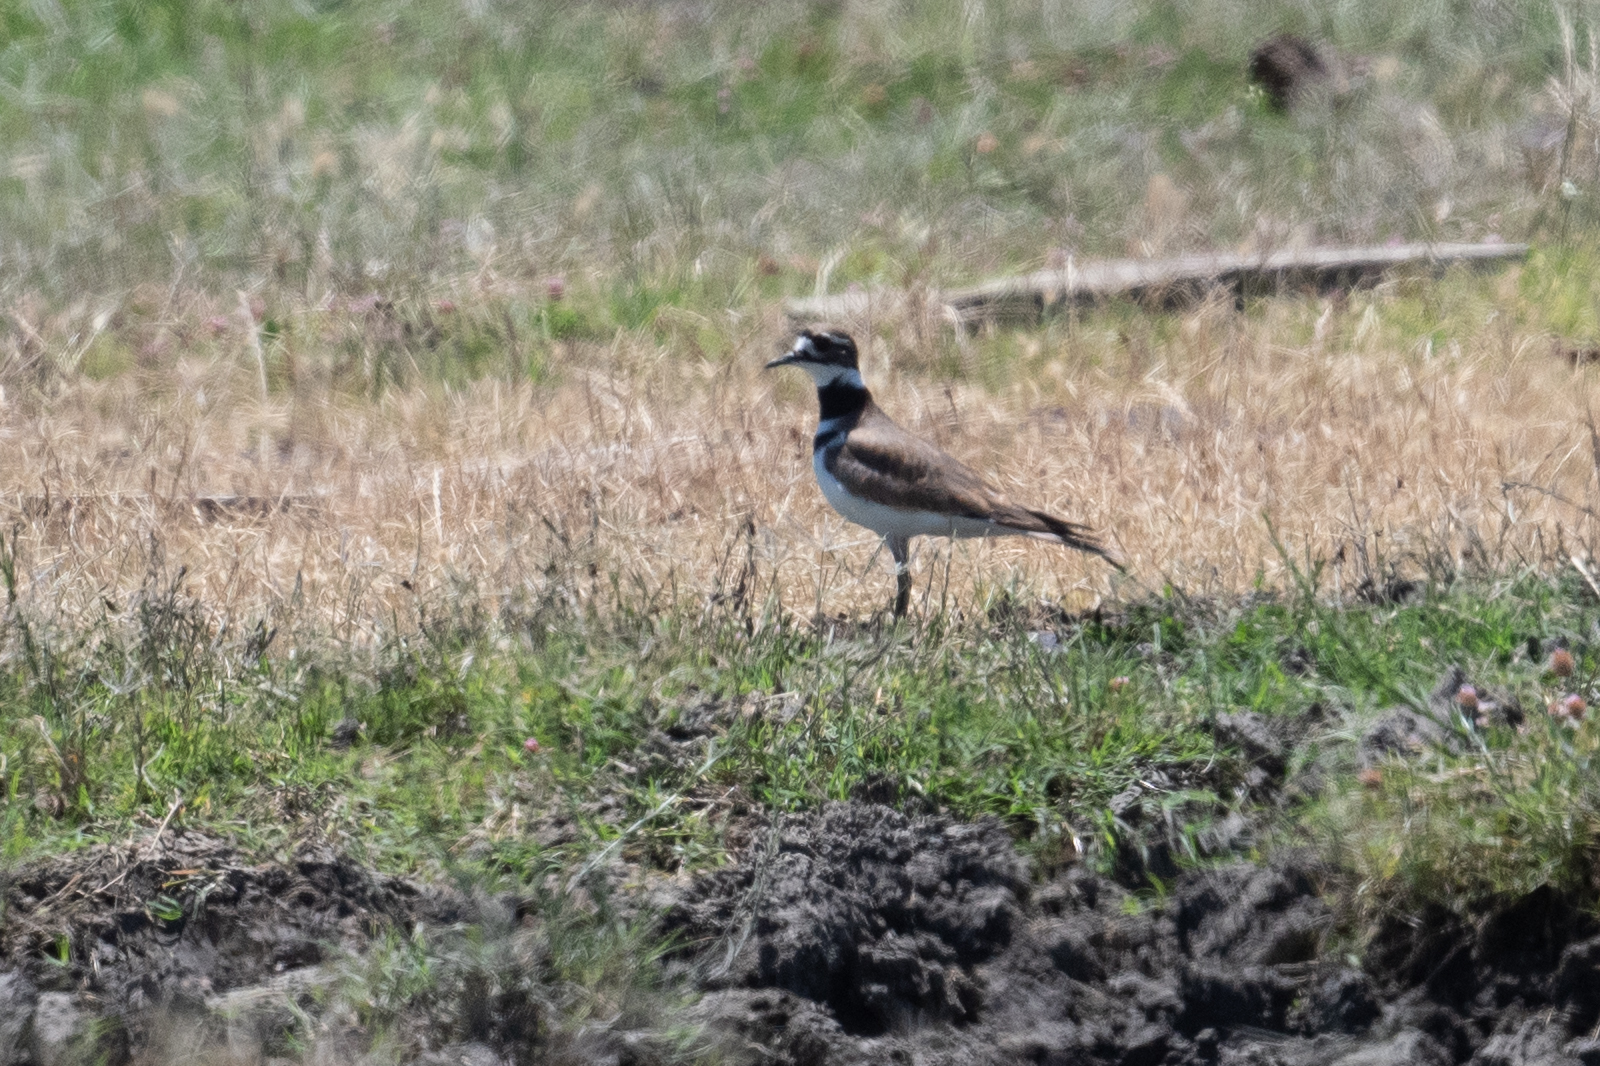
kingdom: Animalia
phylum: Chordata
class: Aves
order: Charadriiformes
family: Charadriidae
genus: Charadrius
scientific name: Charadrius vociferus
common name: Killdeer
